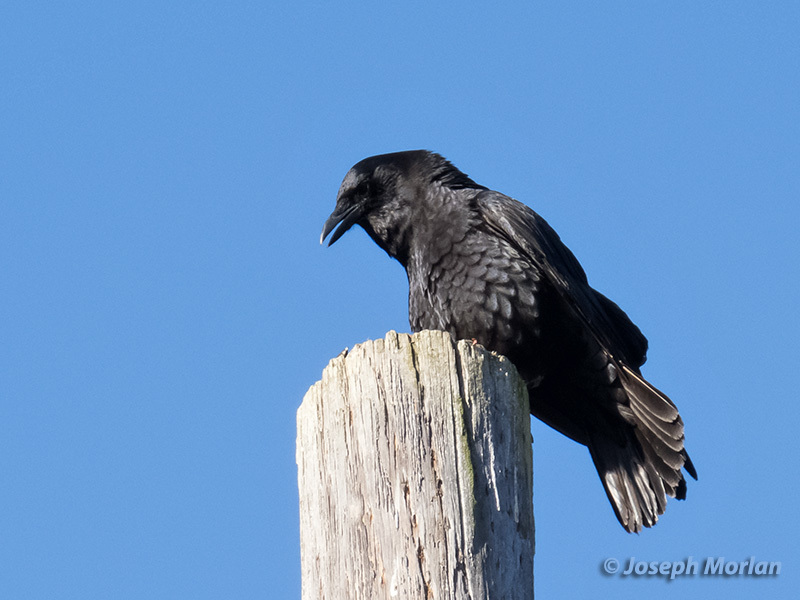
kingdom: Animalia
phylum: Chordata
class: Aves
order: Passeriformes
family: Corvidae
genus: Corvus
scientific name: Corvus brachyrhynchos
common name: American crow
